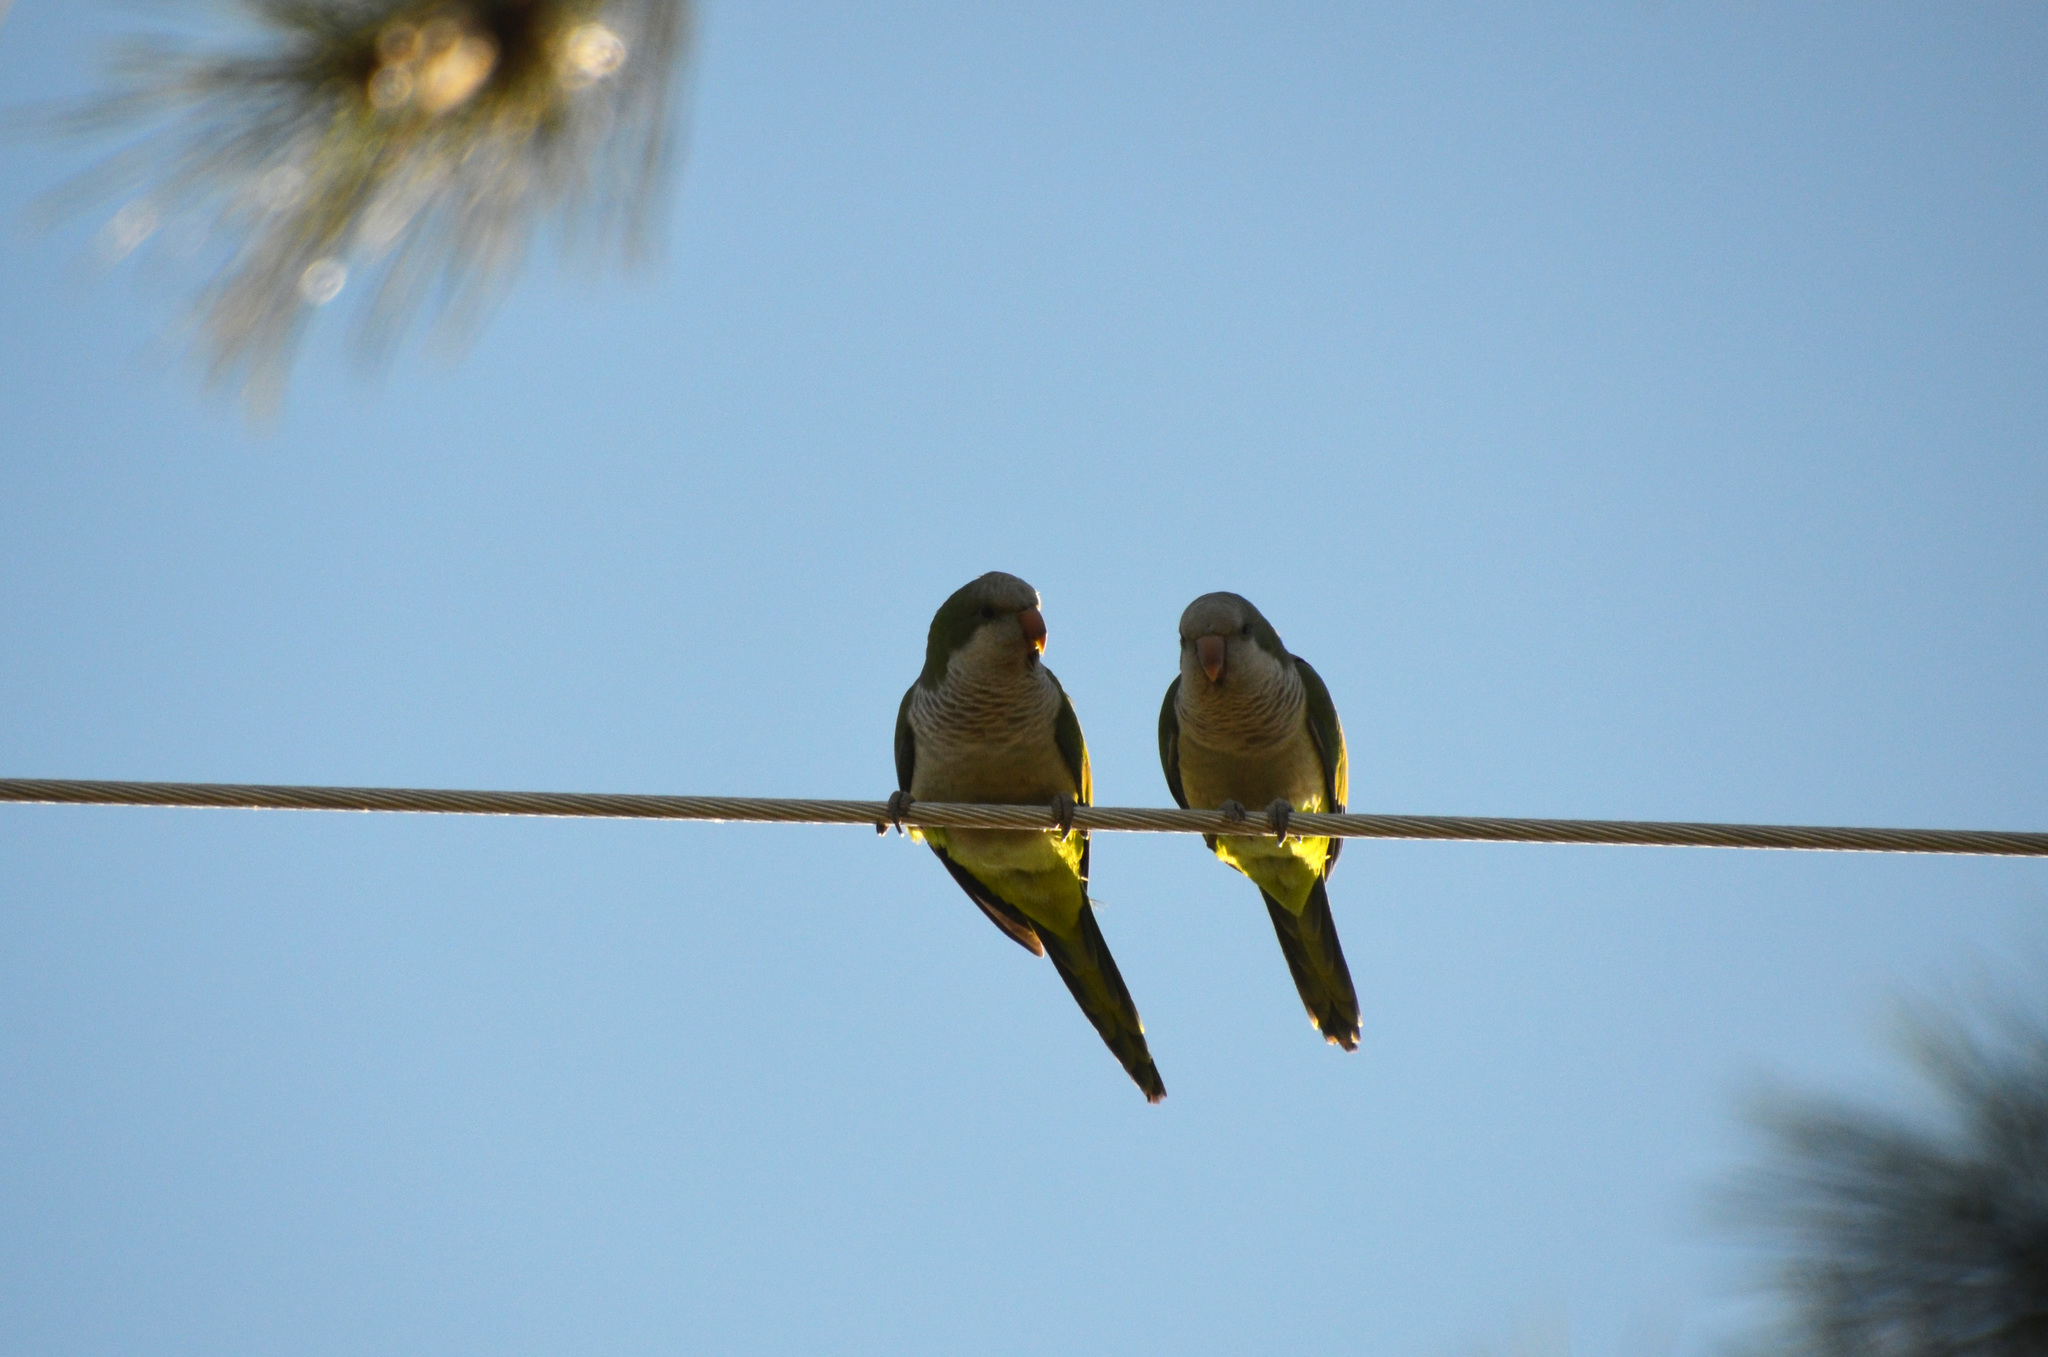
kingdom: Animalia
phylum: Chordata
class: Aves
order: Psittaciformes
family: Psittacidae
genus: Myiopsitta
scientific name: Myiopsitta monachus
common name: Monk parakeet
